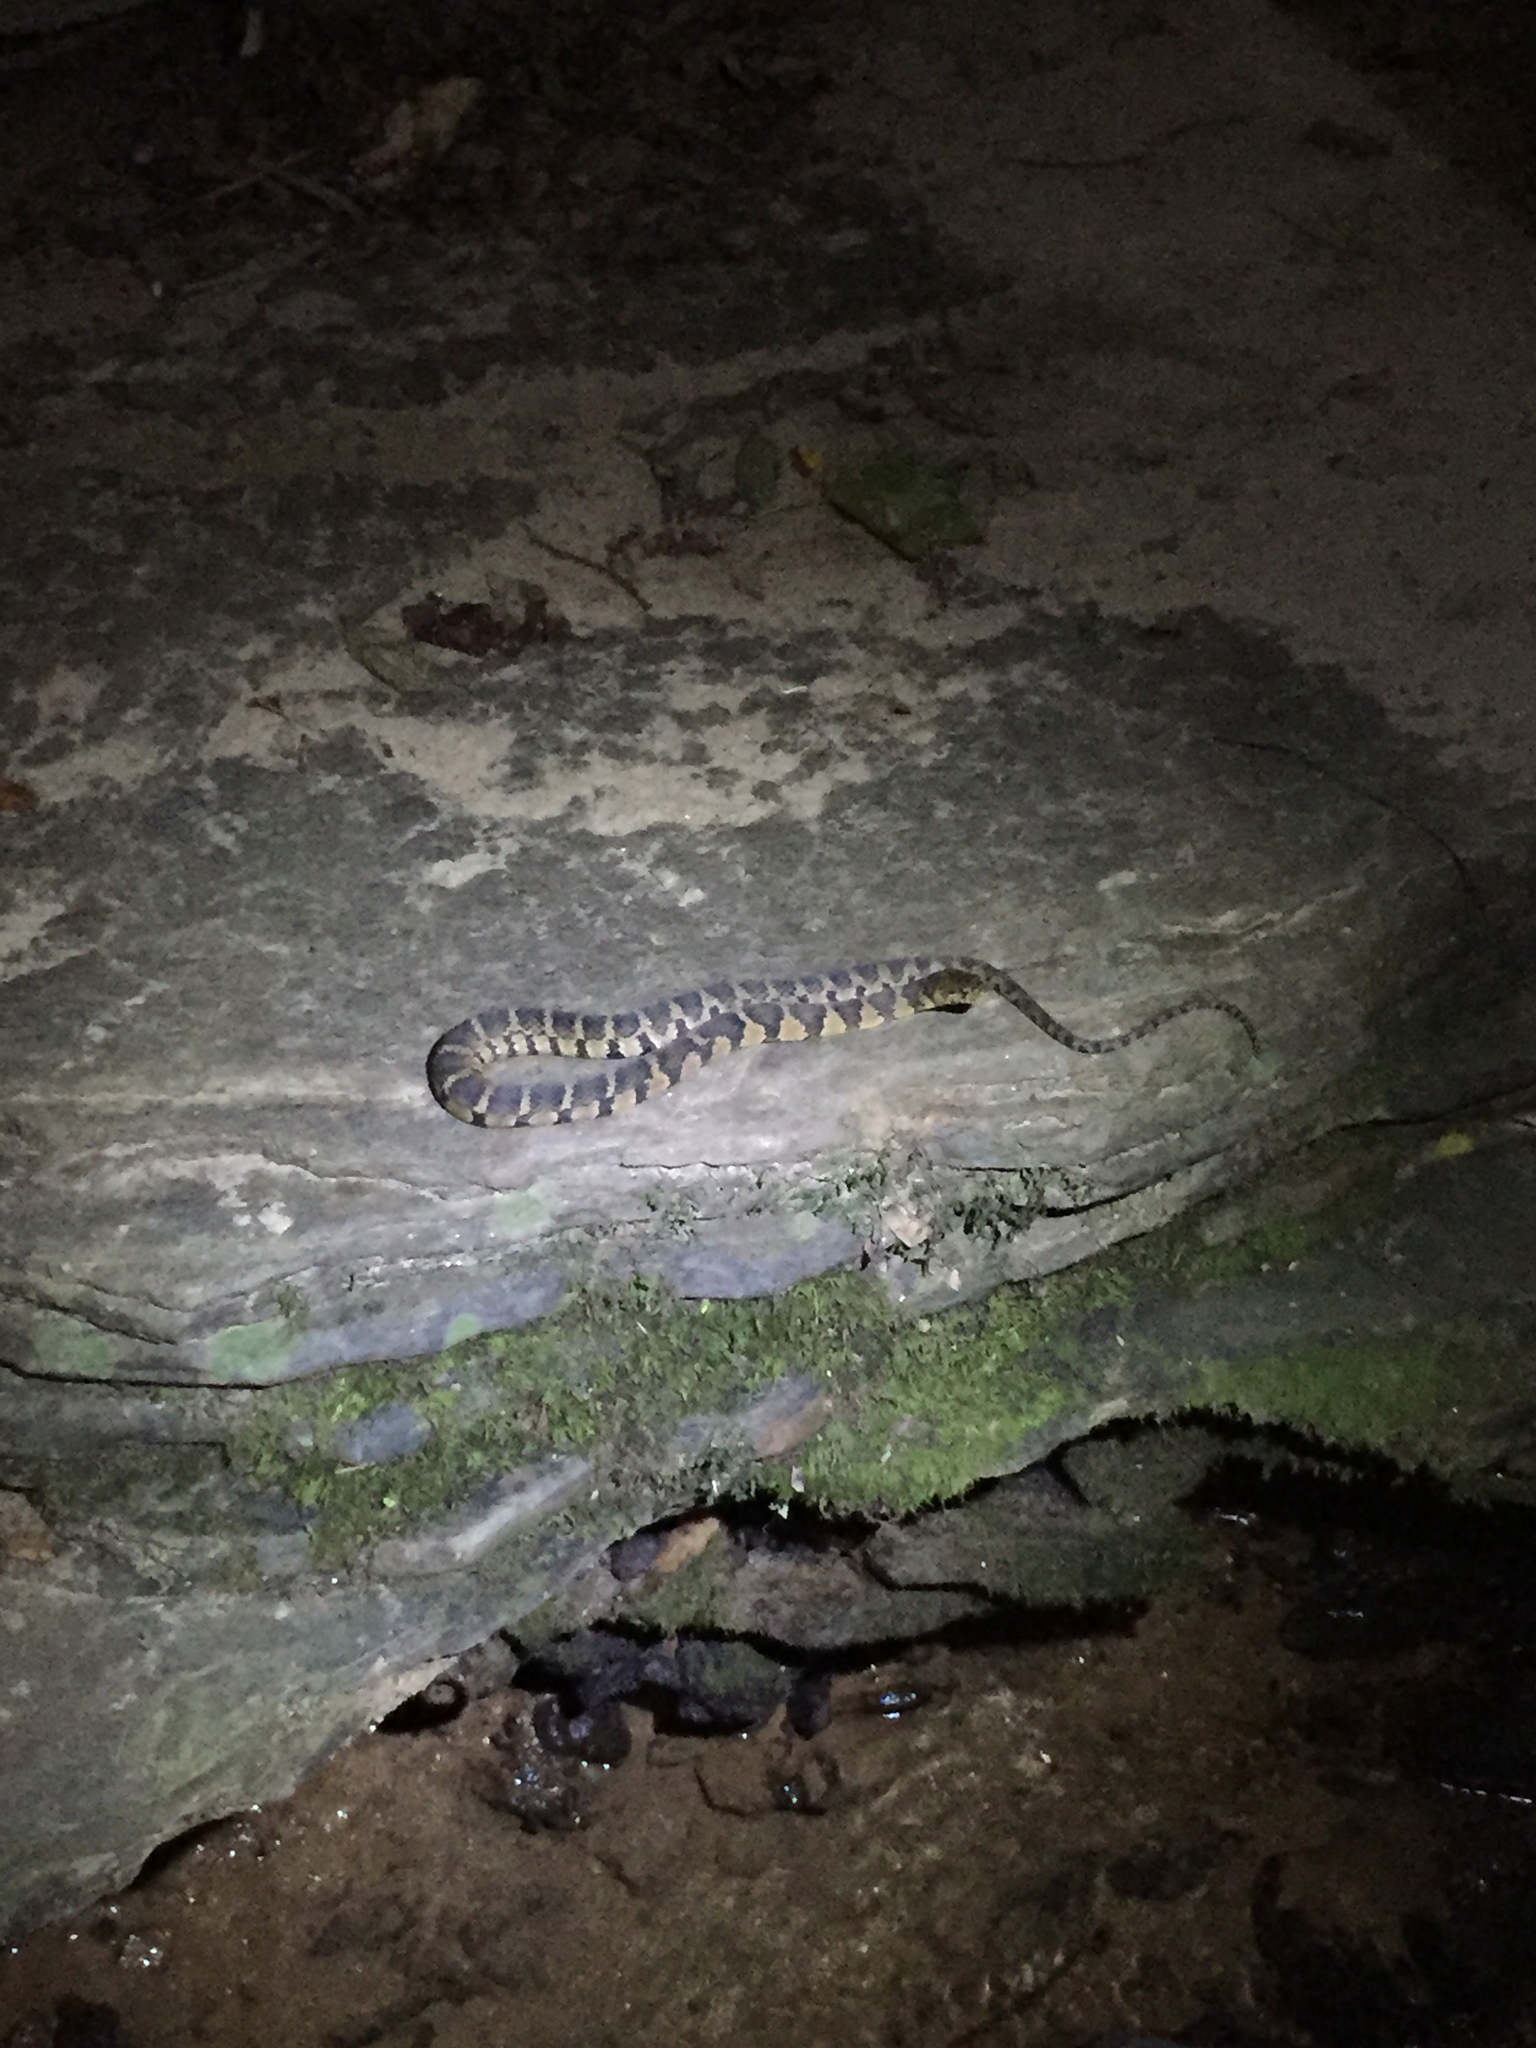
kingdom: Animalia
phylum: Chordata
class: Squamata
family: Colubridae
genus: Nerodia
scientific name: Nerodia sipedon
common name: Northern water snake
